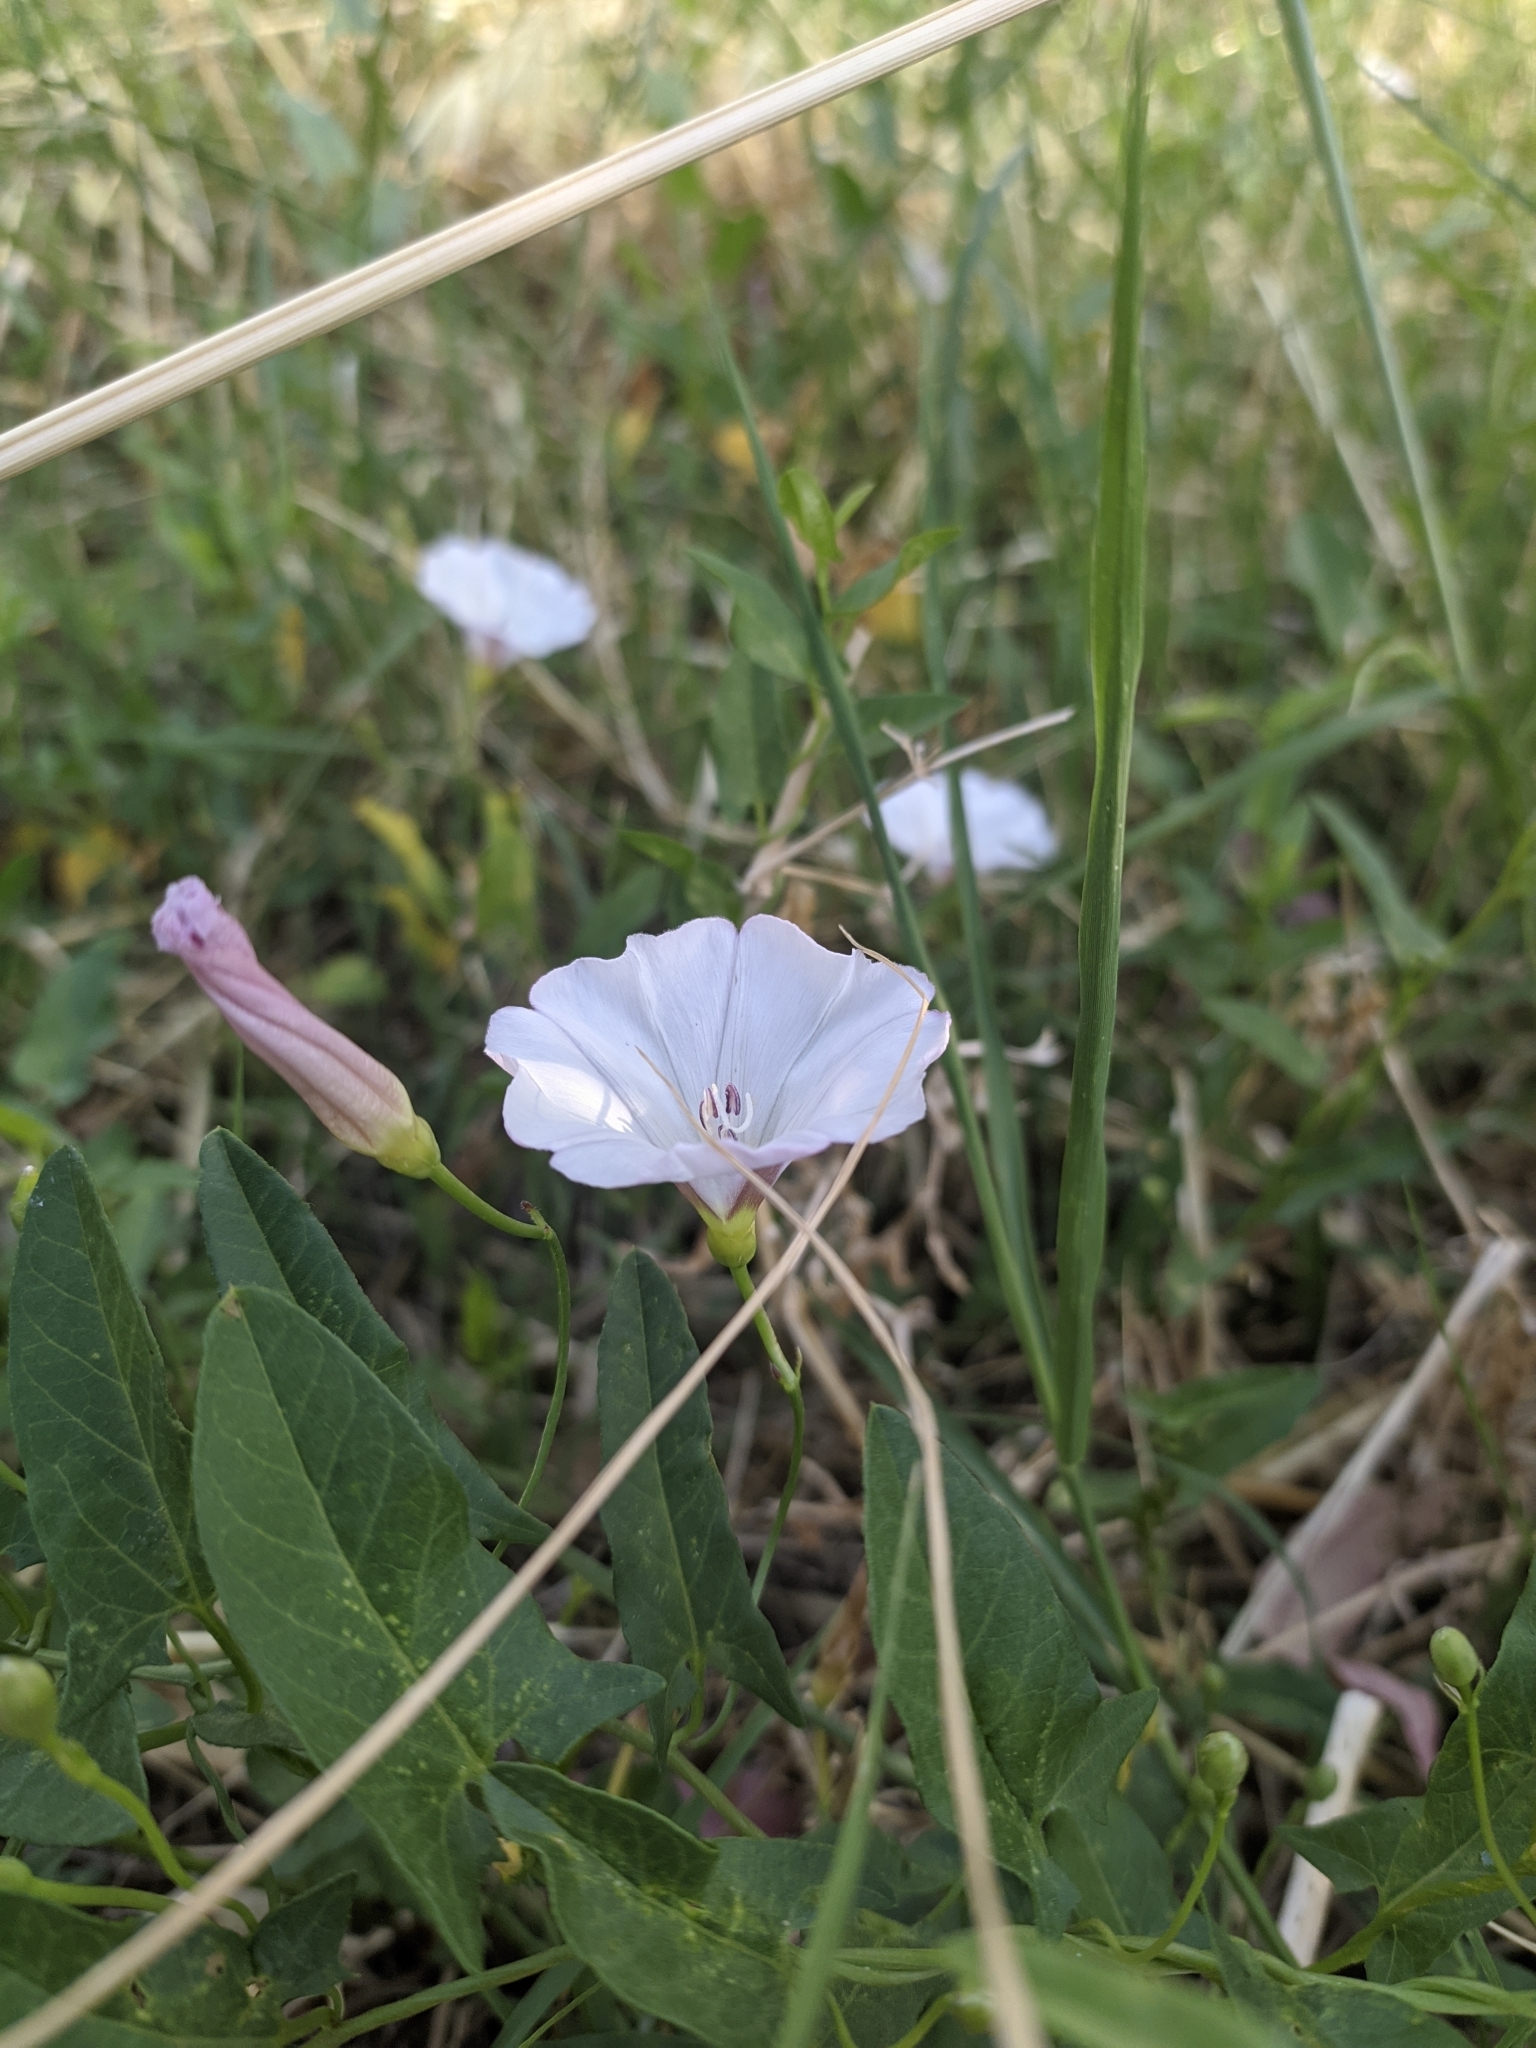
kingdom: Plantae
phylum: Tracheophyta
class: Magnoliopsida
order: Solanales
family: Convolvulaceae
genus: Convolvulus
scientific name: Convolvulus arvensis
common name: Field bindweed
